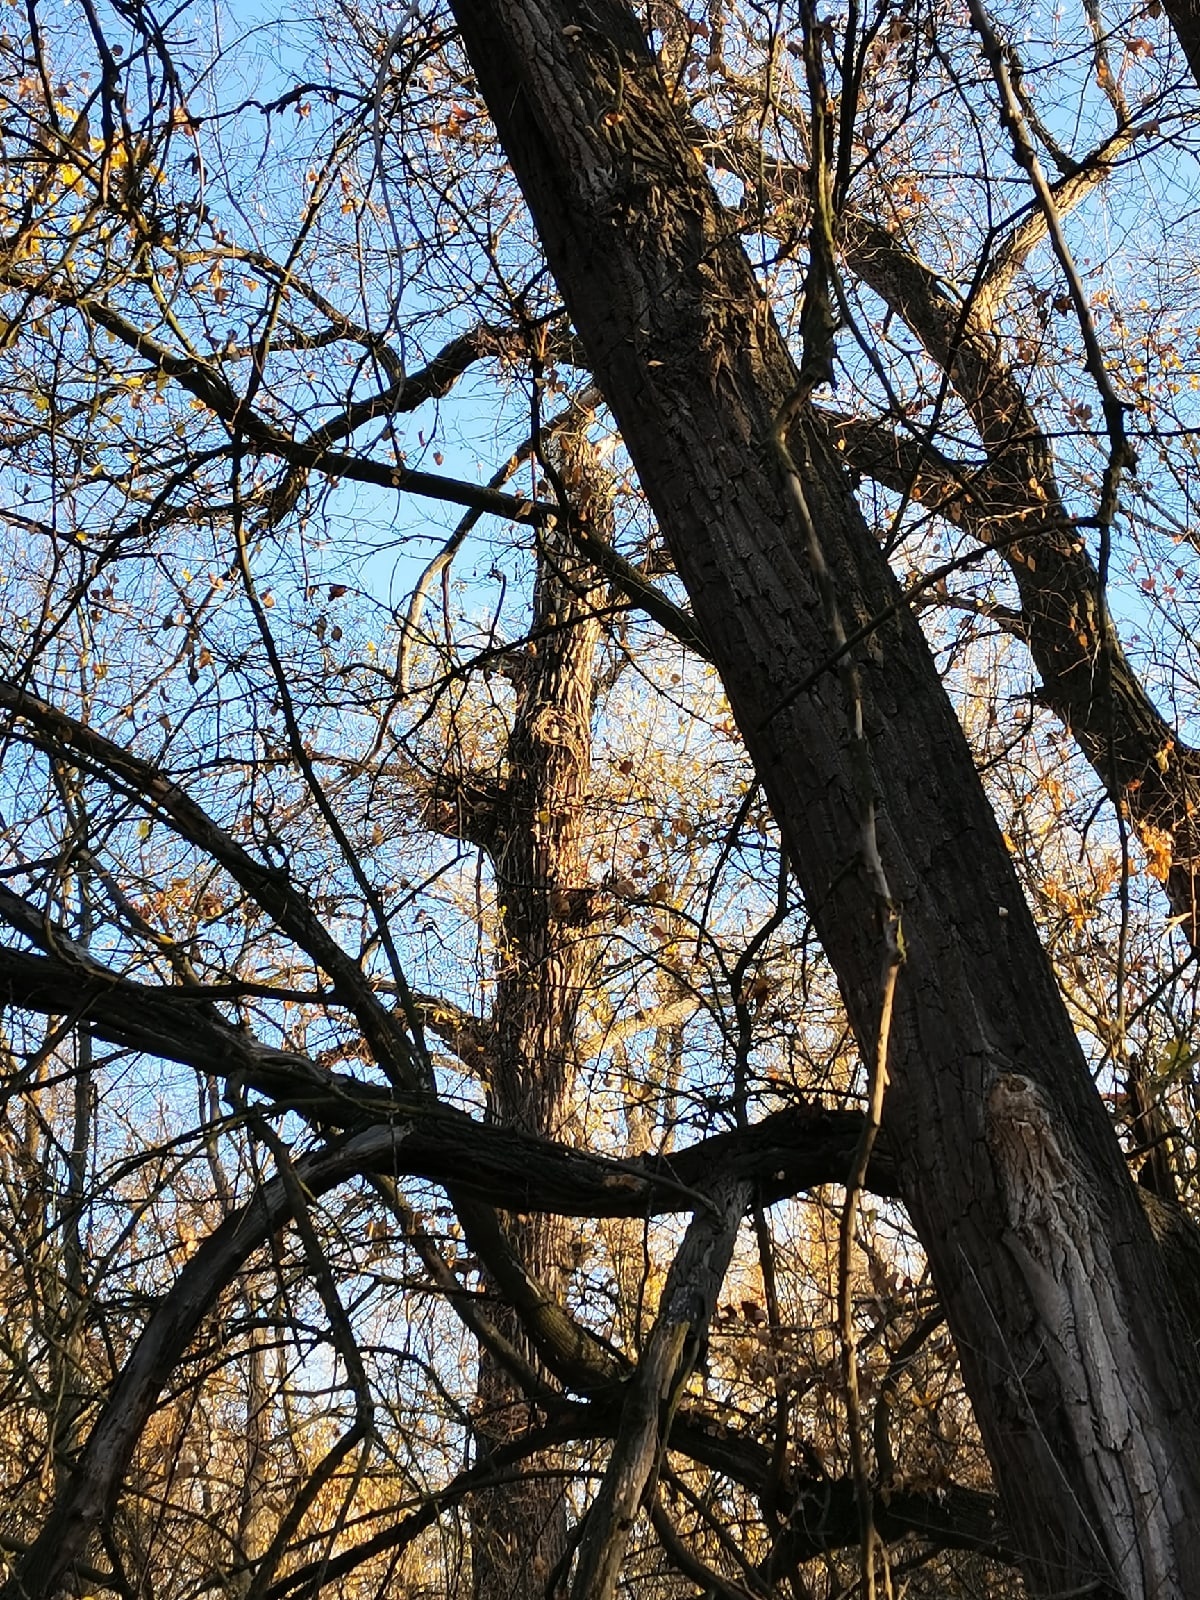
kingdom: Animalia
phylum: Chordata
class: Aves
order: Strigiformes
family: Strigidae
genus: Strix
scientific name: Strix aluco
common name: Tawny owl
